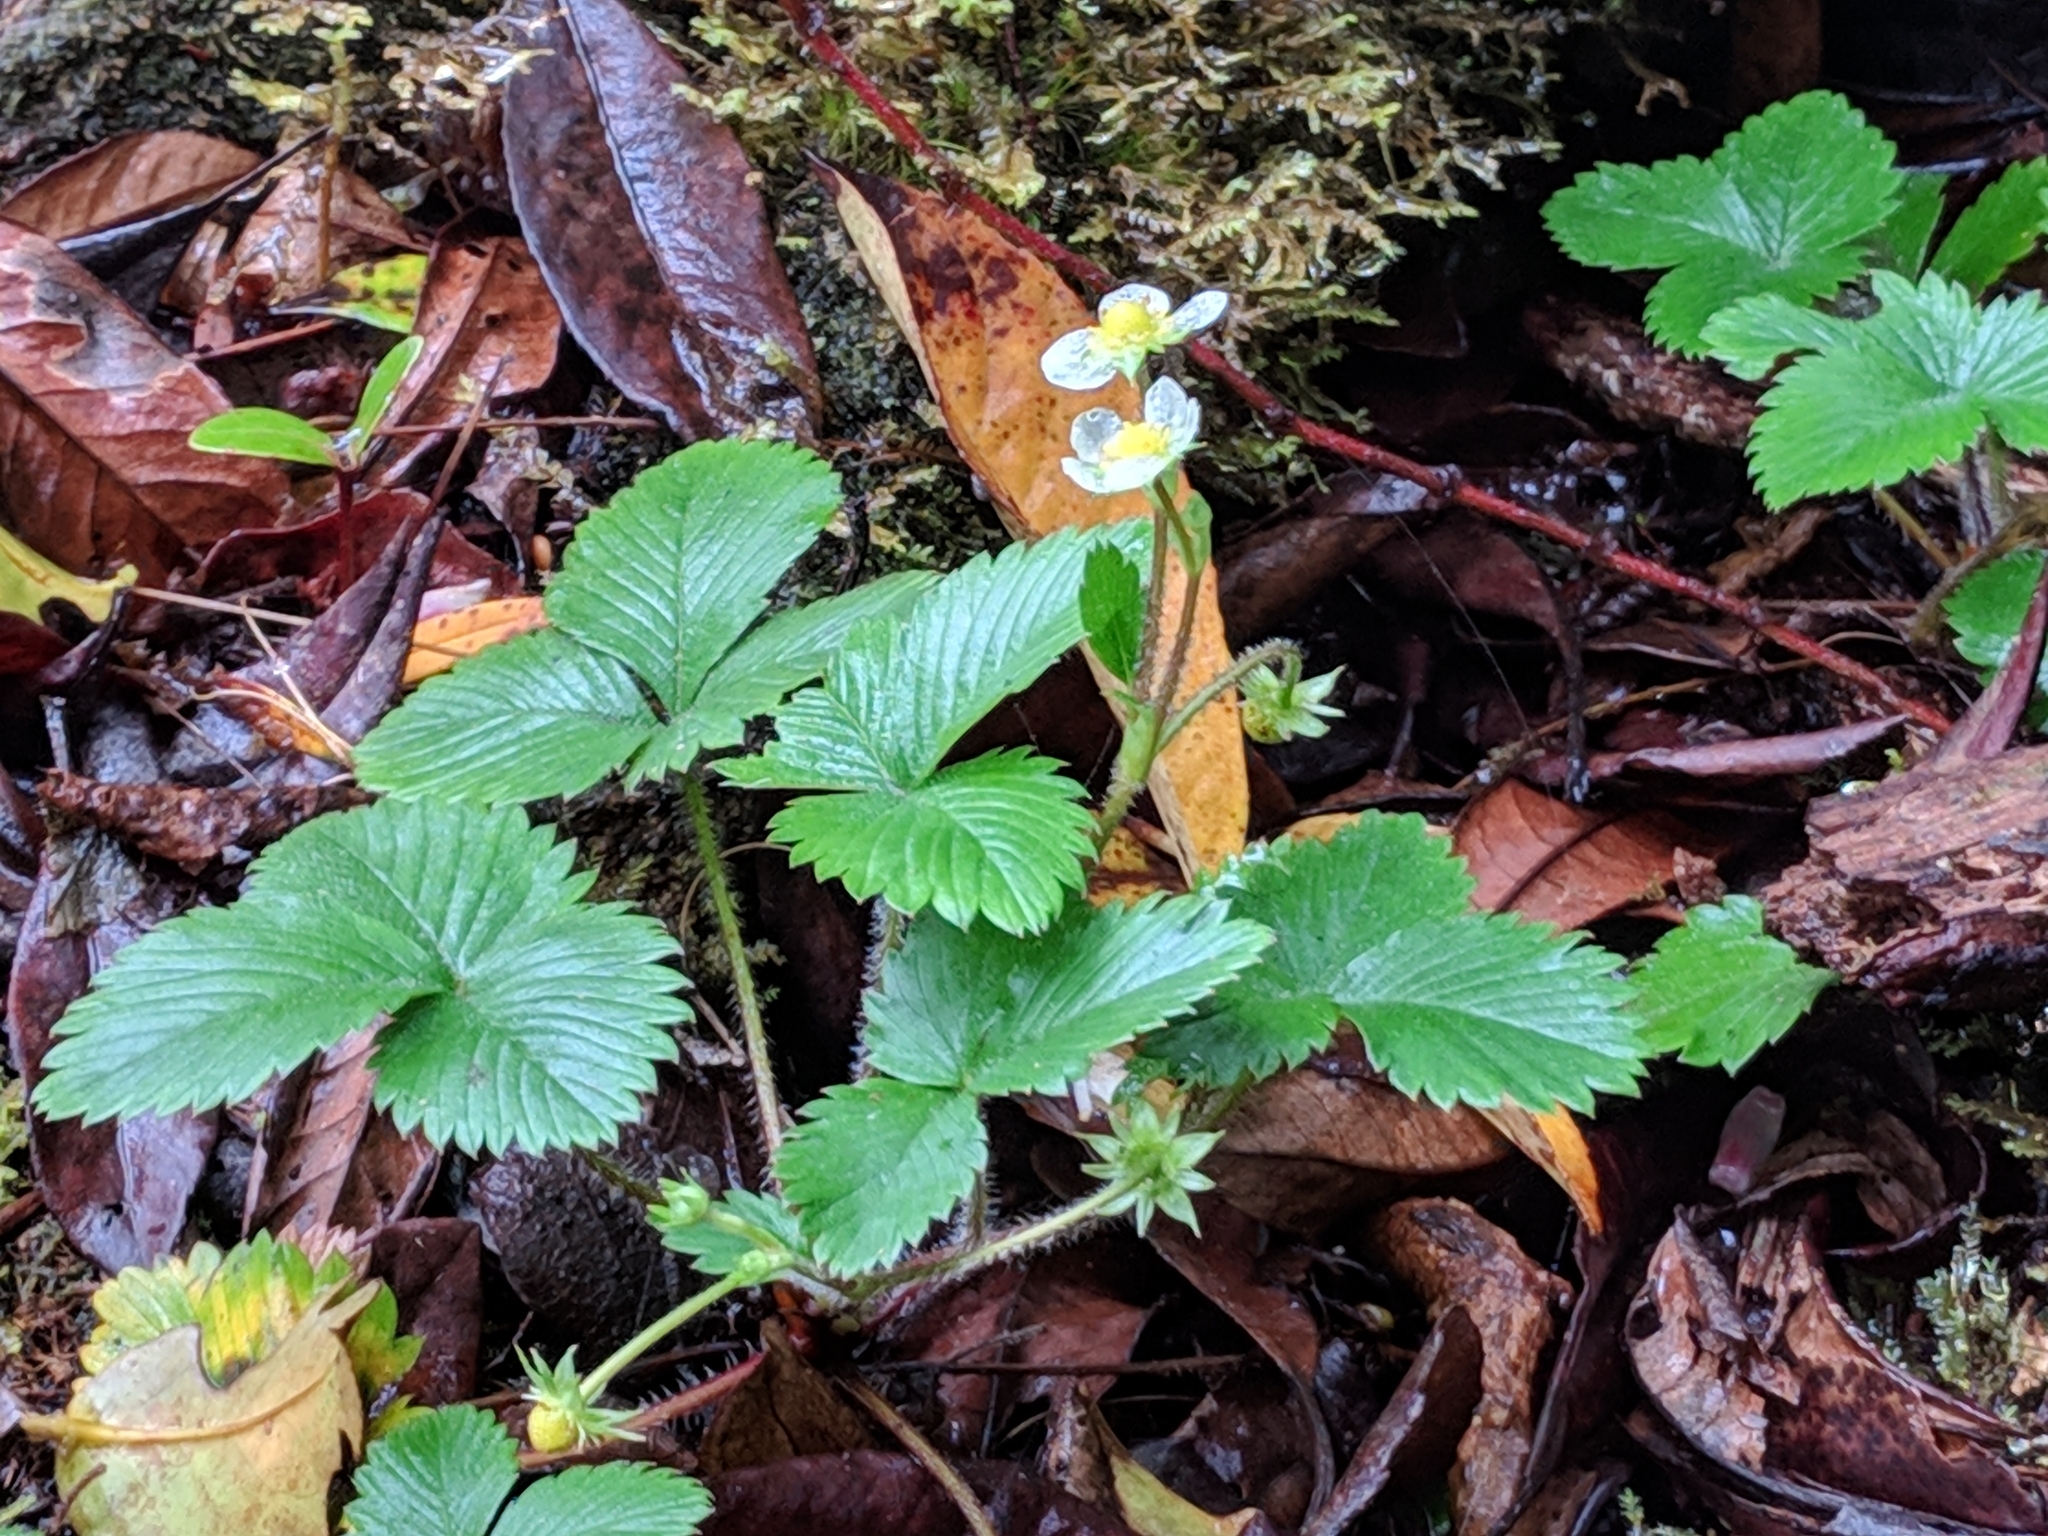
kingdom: Plantae
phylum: Tracheophyta
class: Magnoliopsida
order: Rosales
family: Rosaceae
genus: Fragaria
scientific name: Fragaria vesca
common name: Wild strawberry
